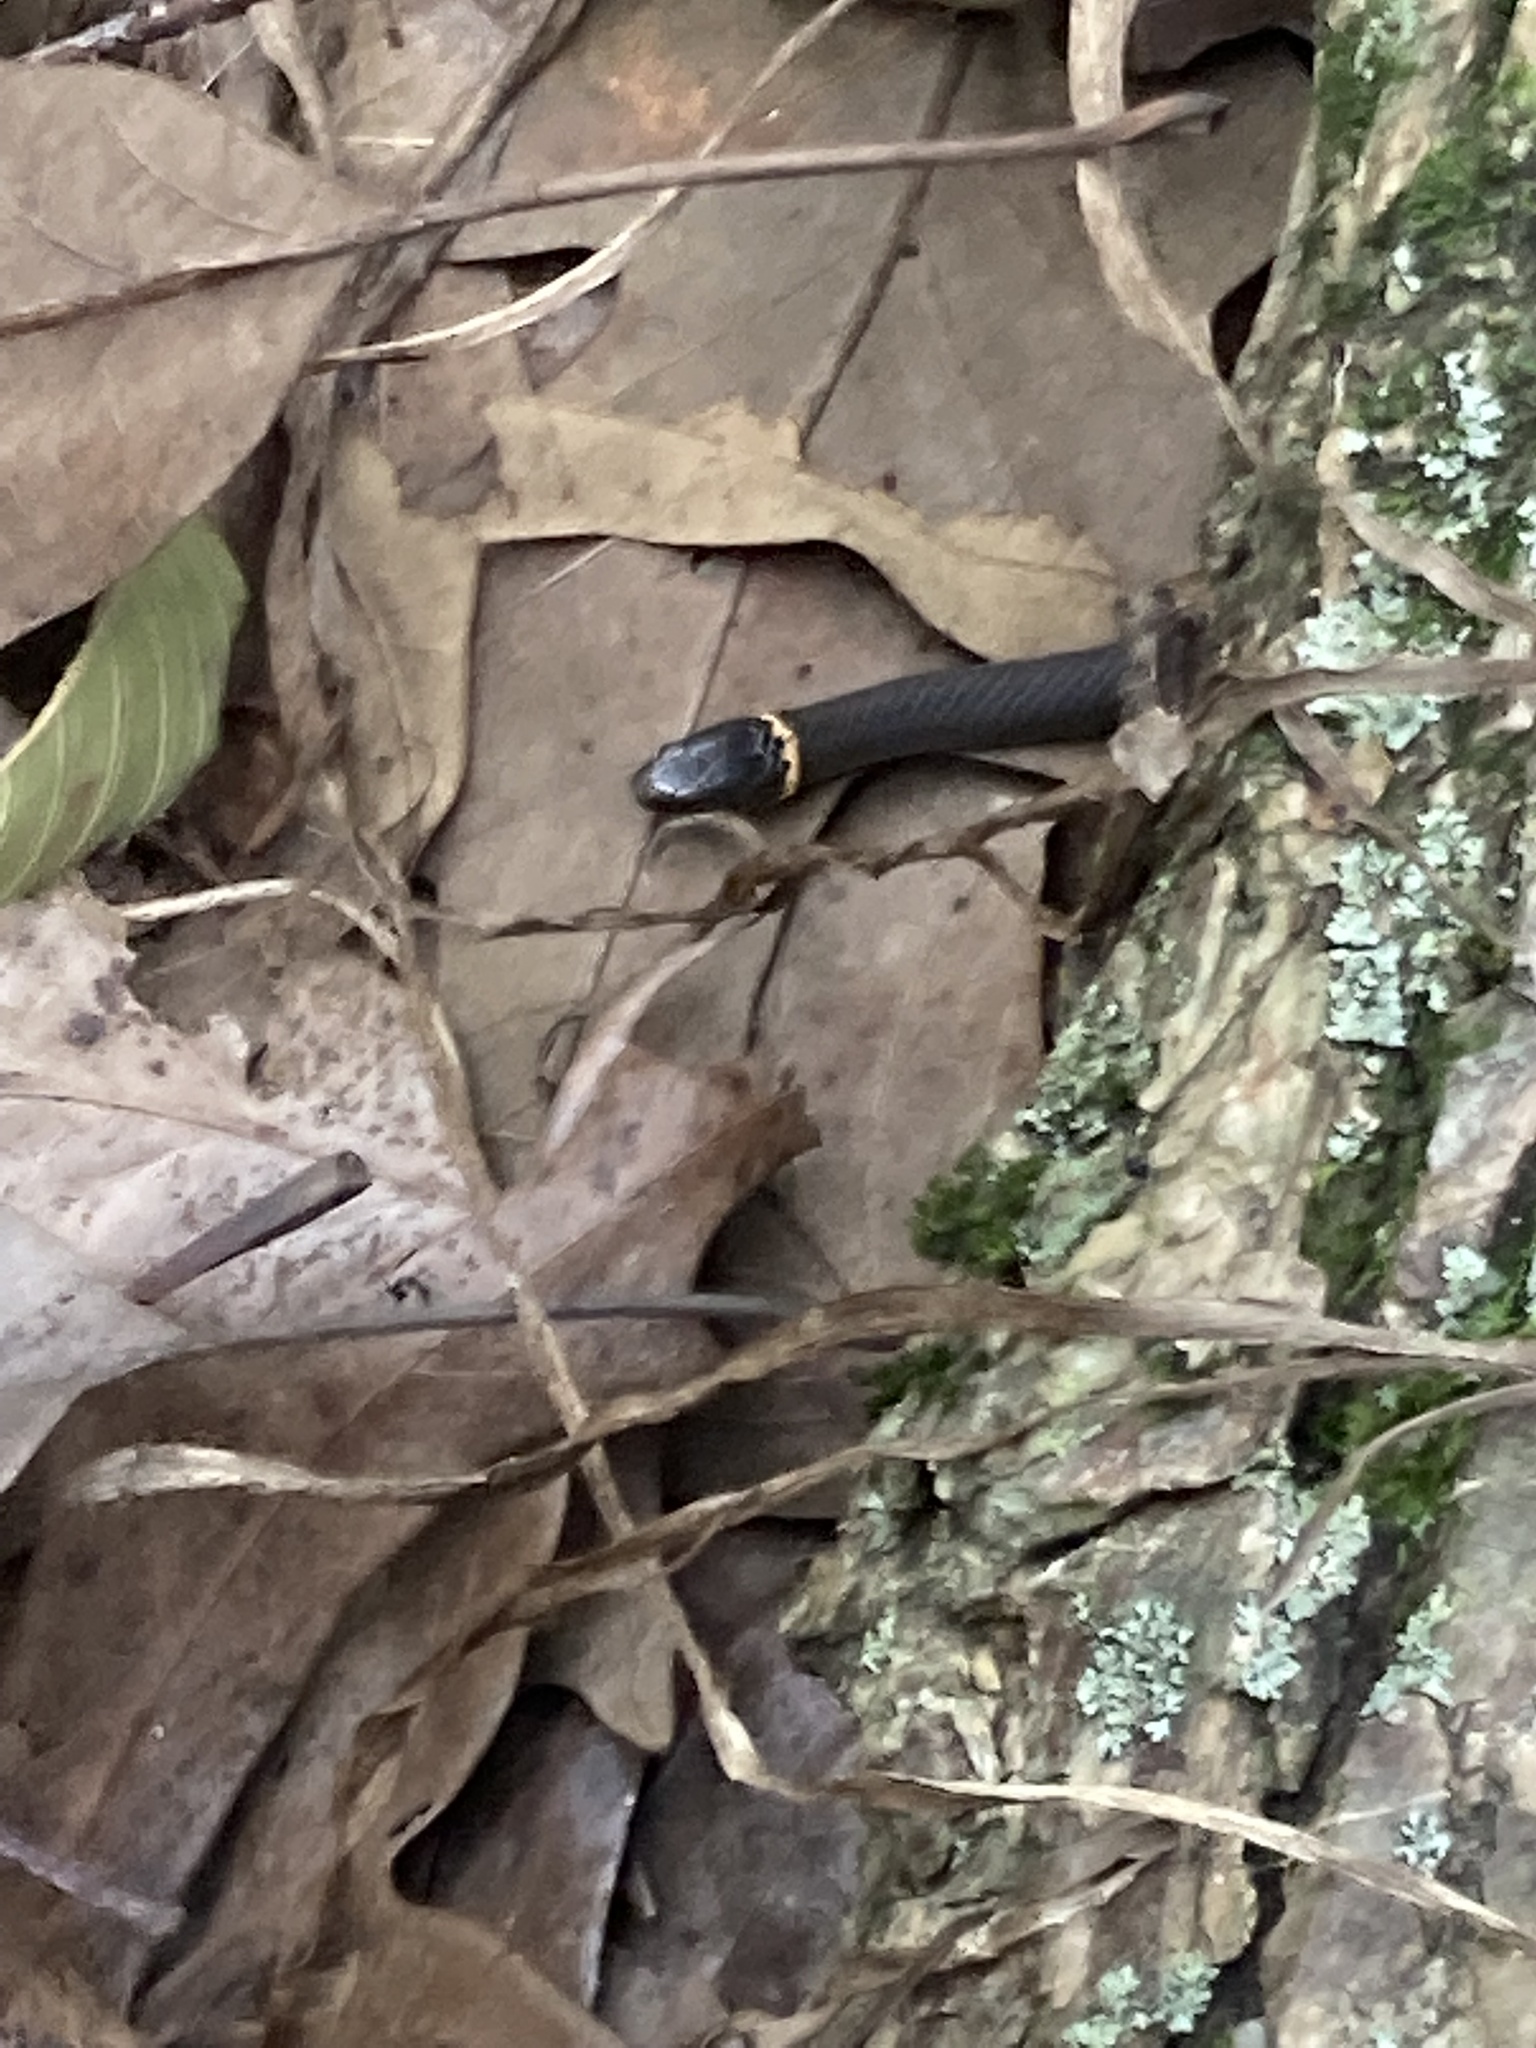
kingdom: Animalia
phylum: Chordata
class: Squamata
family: Colubridae
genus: Diadophis
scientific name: Diadophis punctatus
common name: Ringneck snake
